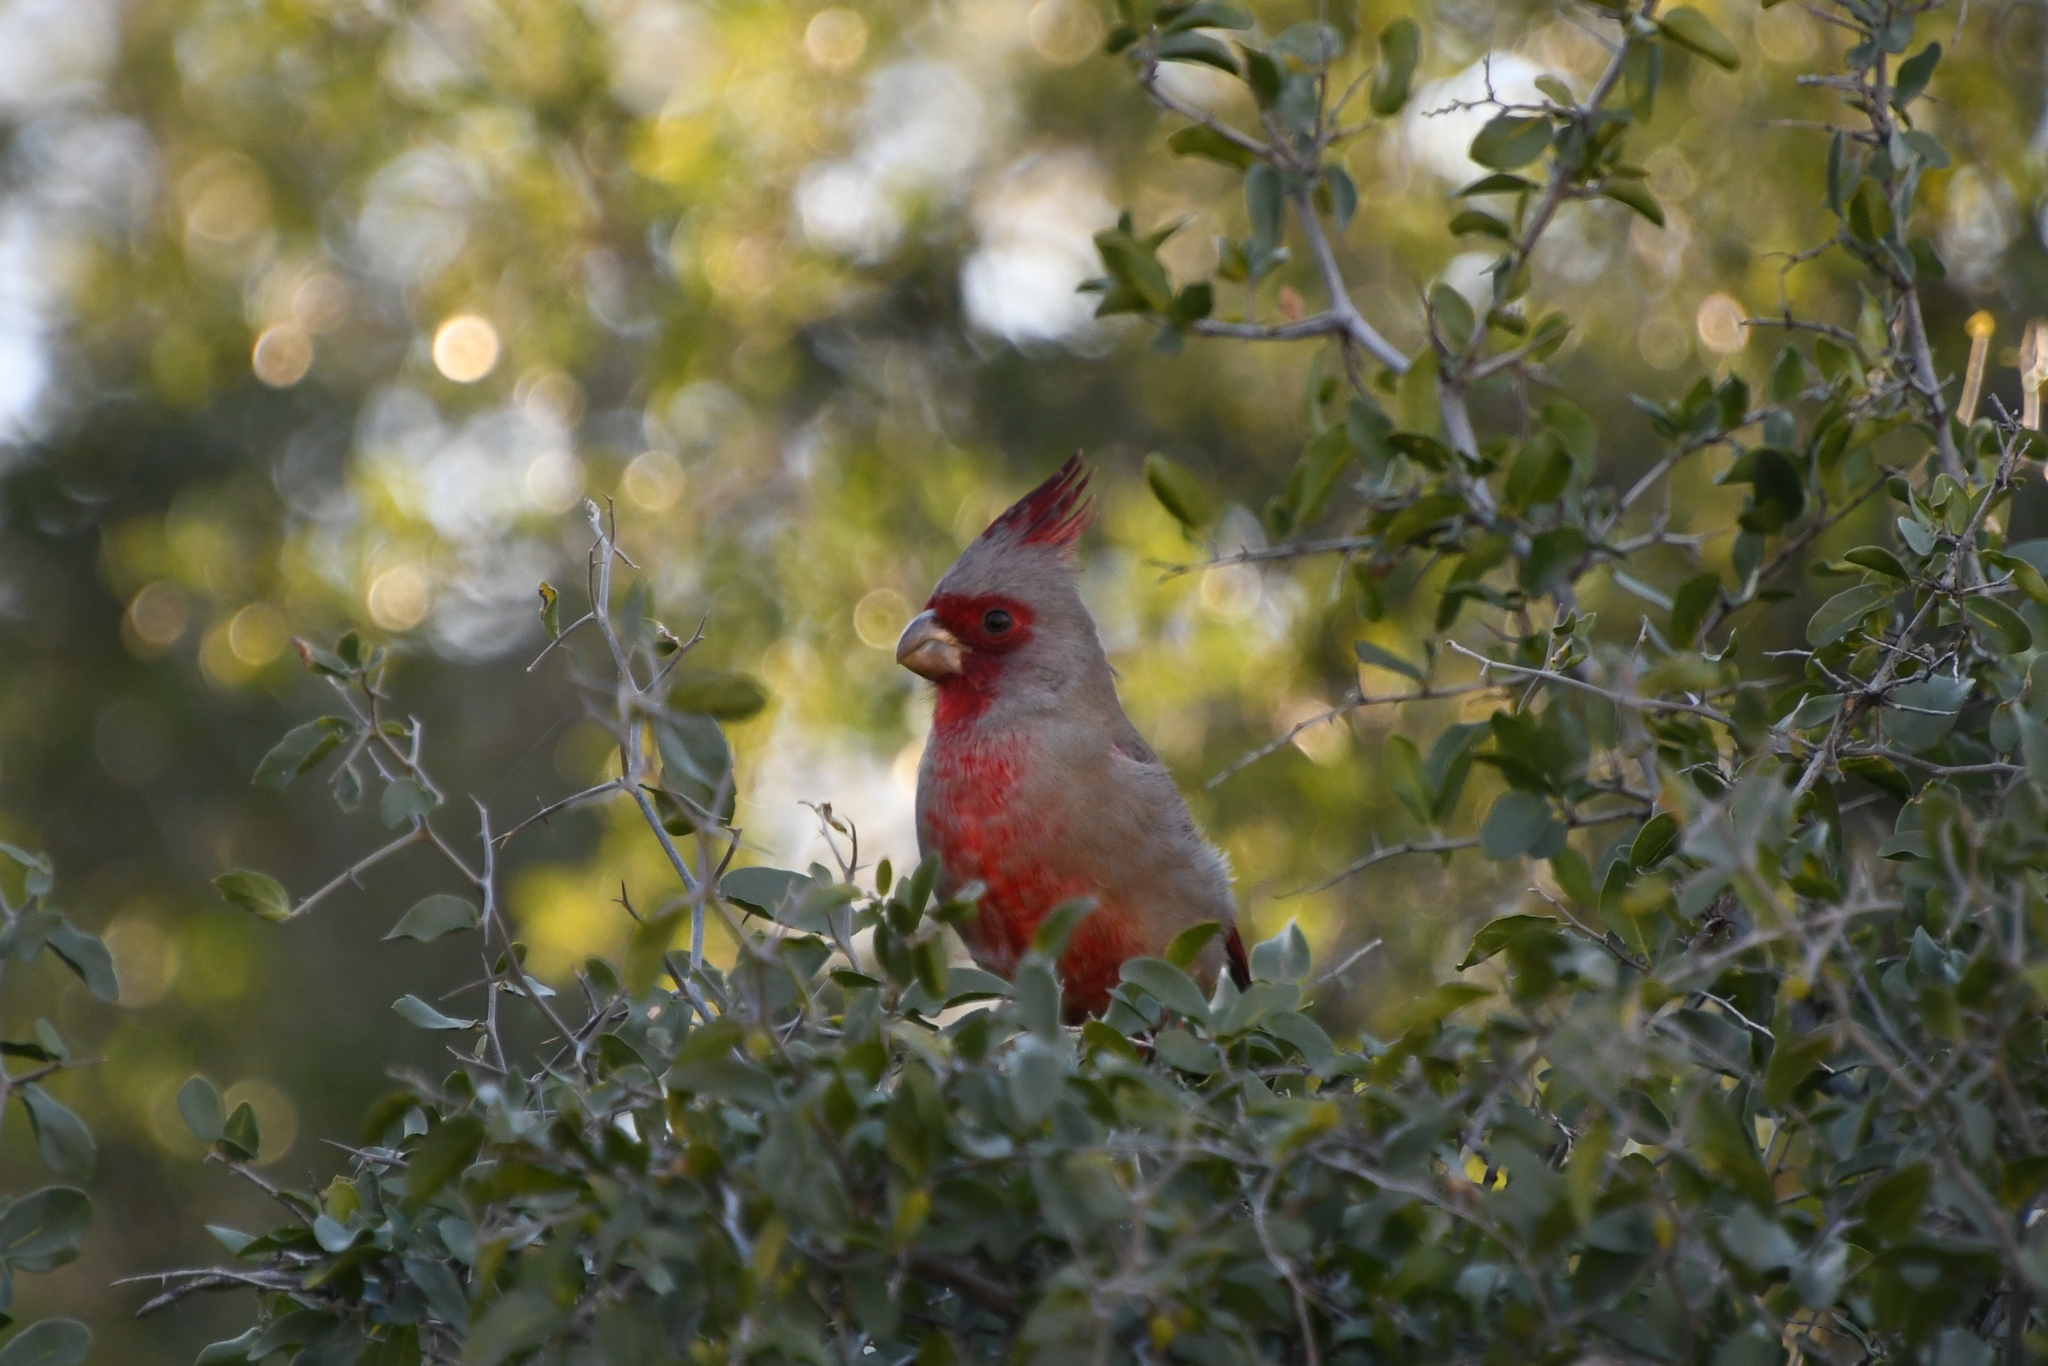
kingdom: Animalia
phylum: Chordata
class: Aves
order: Passeriformes
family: Cardinalidae
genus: Cardinalis
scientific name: Cardinalis sinuatus
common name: Pyrrhuloxia
